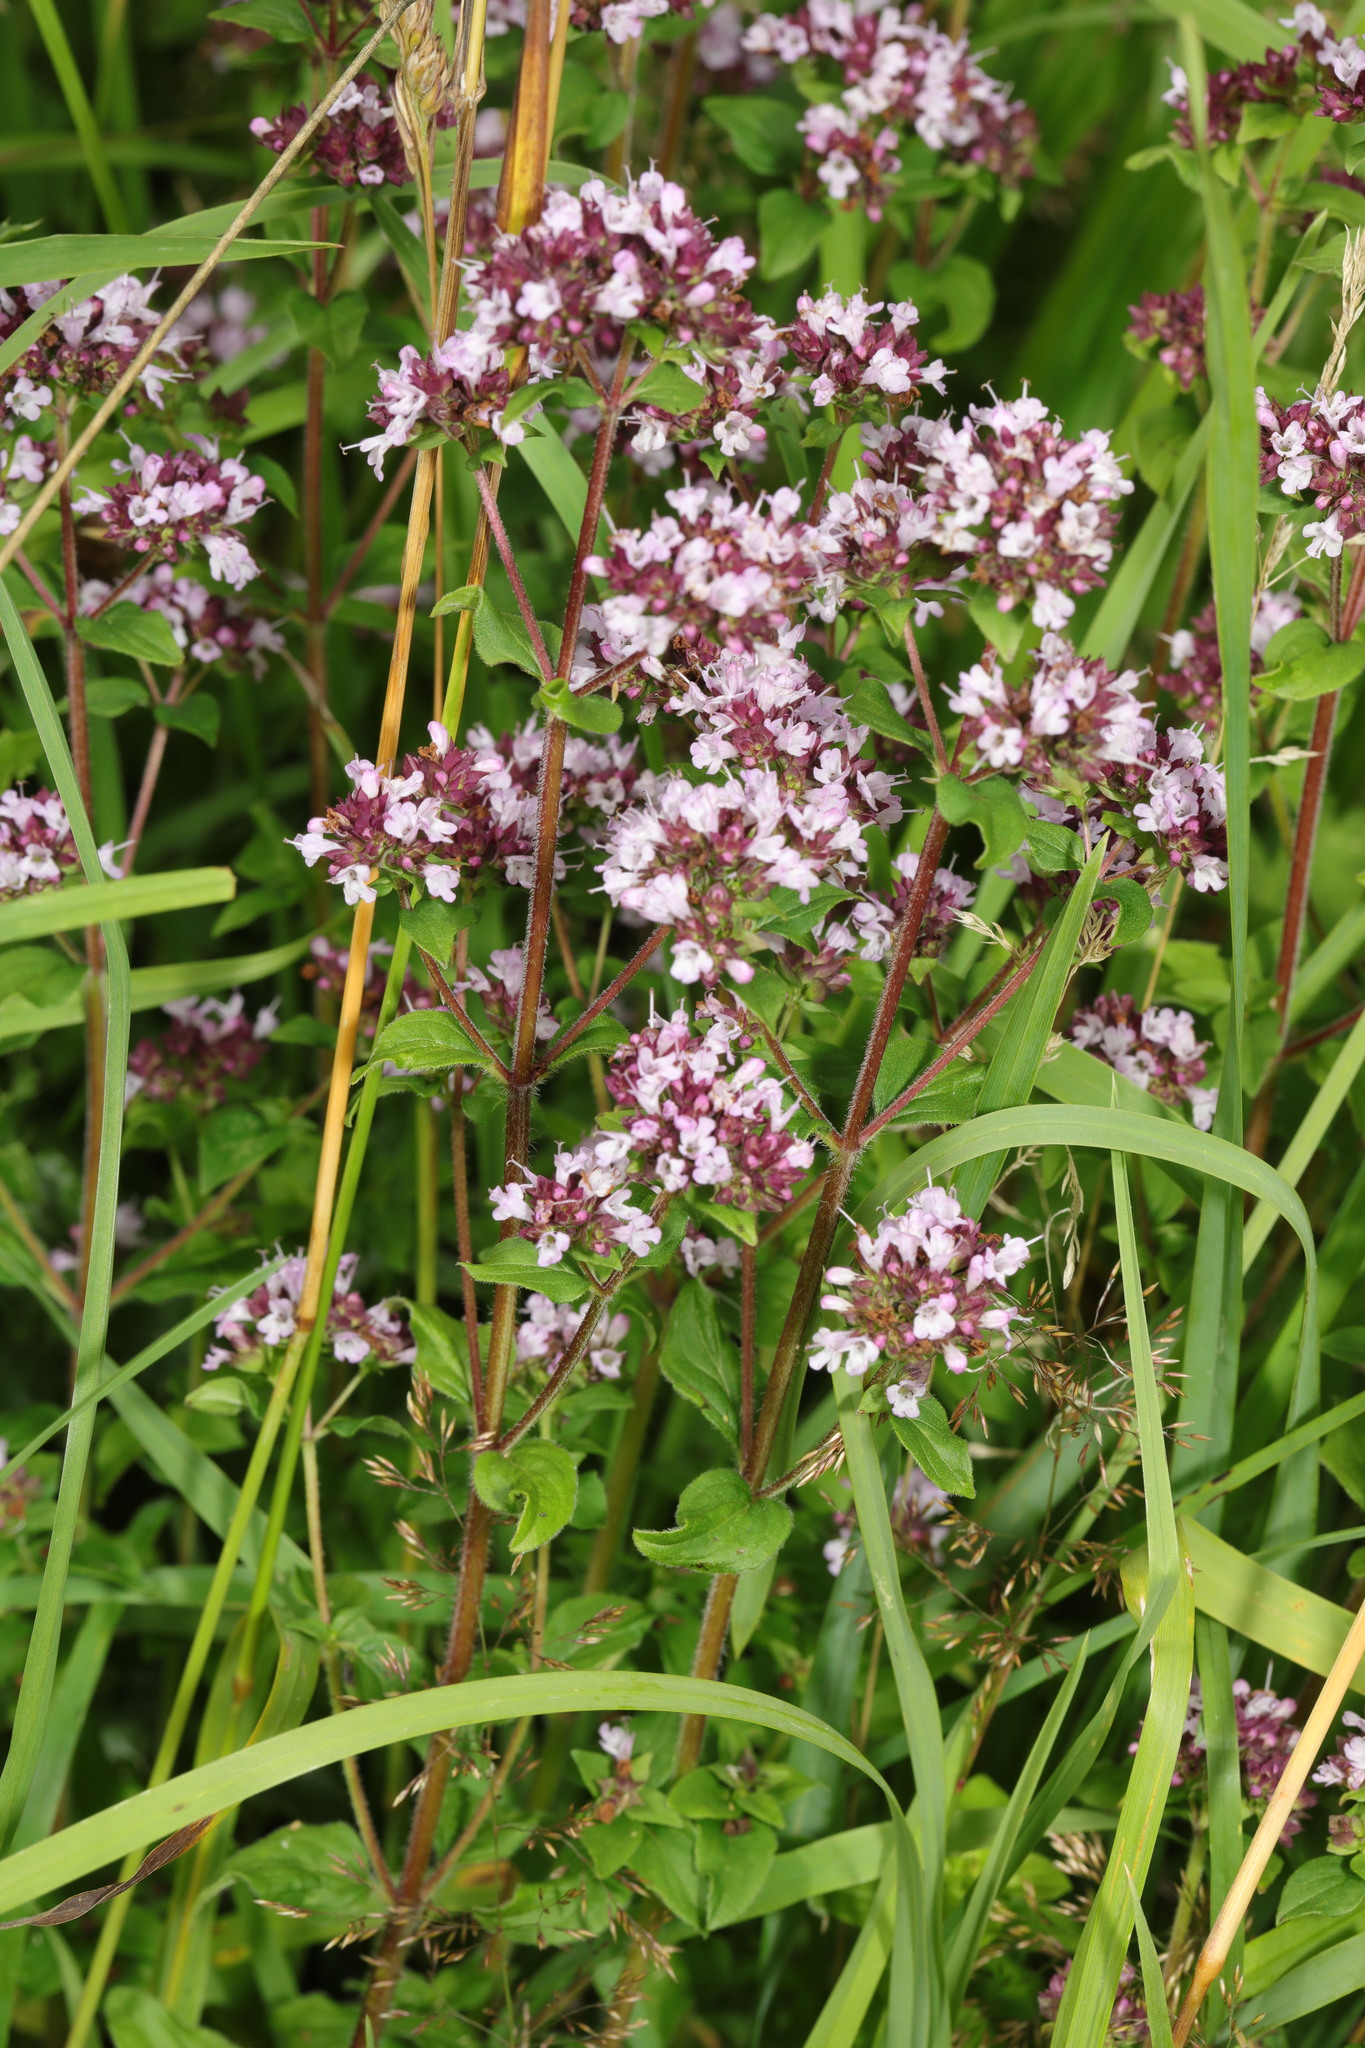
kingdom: Plantae
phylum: Tracheophyta
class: Magnoliopsida
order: Lamiales
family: Lamiaceae
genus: Origanum
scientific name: Origanum vulgare
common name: Wild marjoram
